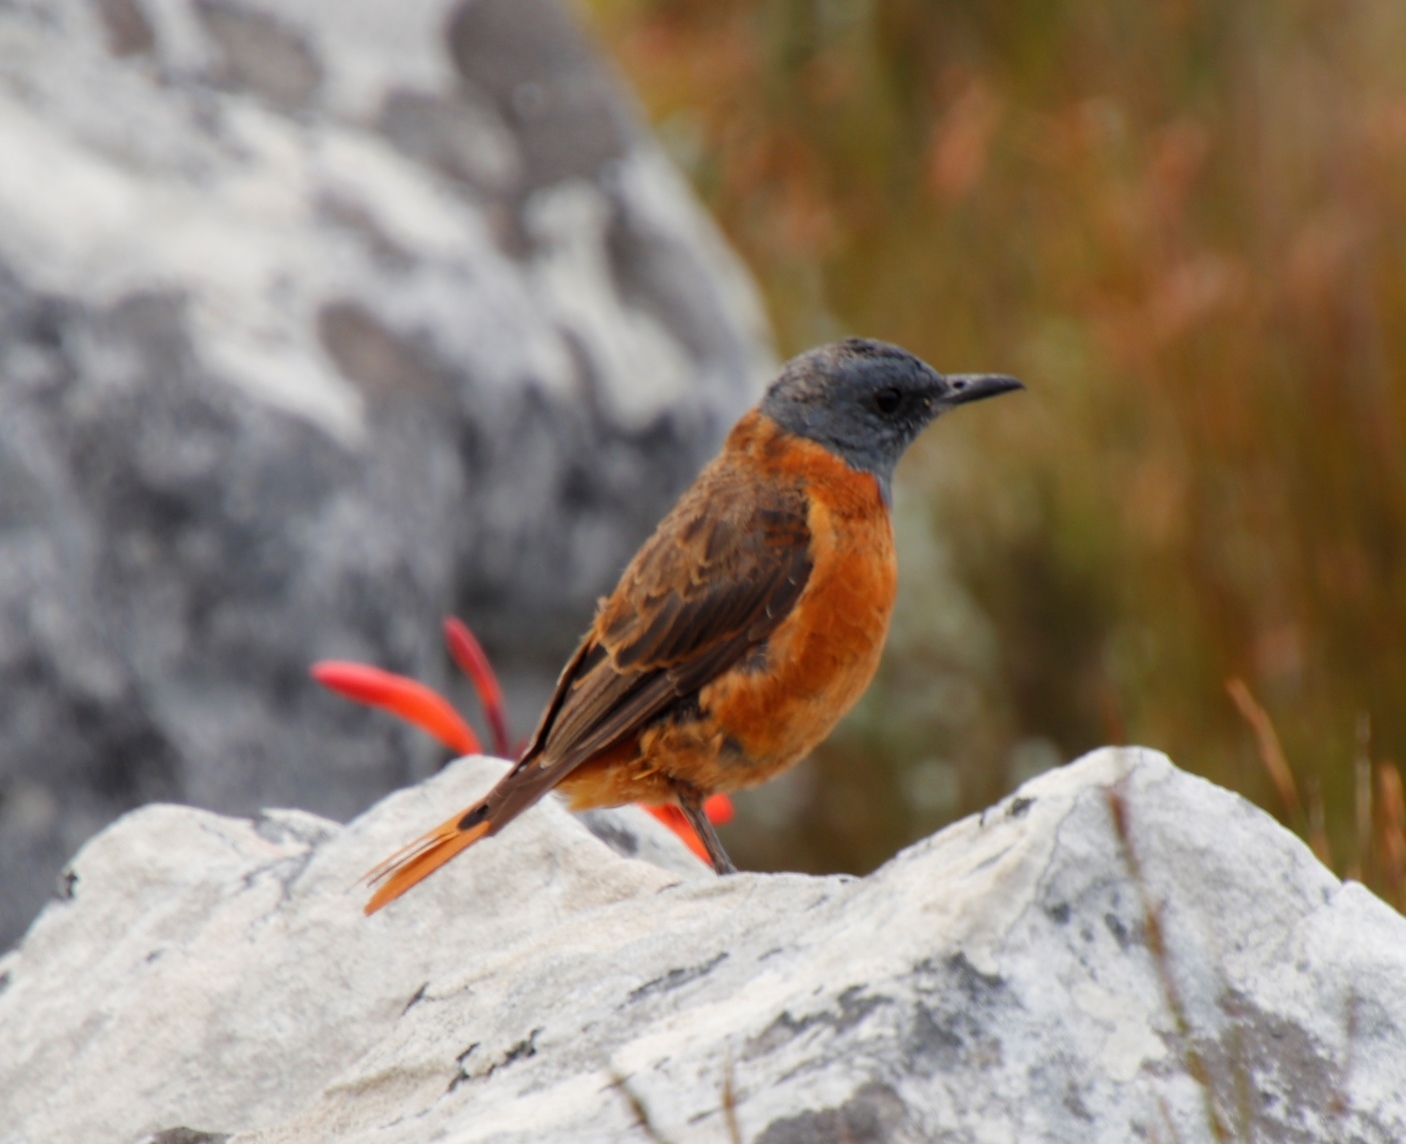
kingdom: Animalia
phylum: Chordata
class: Aves
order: Passeriformes
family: Muscicapidae
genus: Monticola
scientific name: Monticola rupestris
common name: Cape rock thrush
